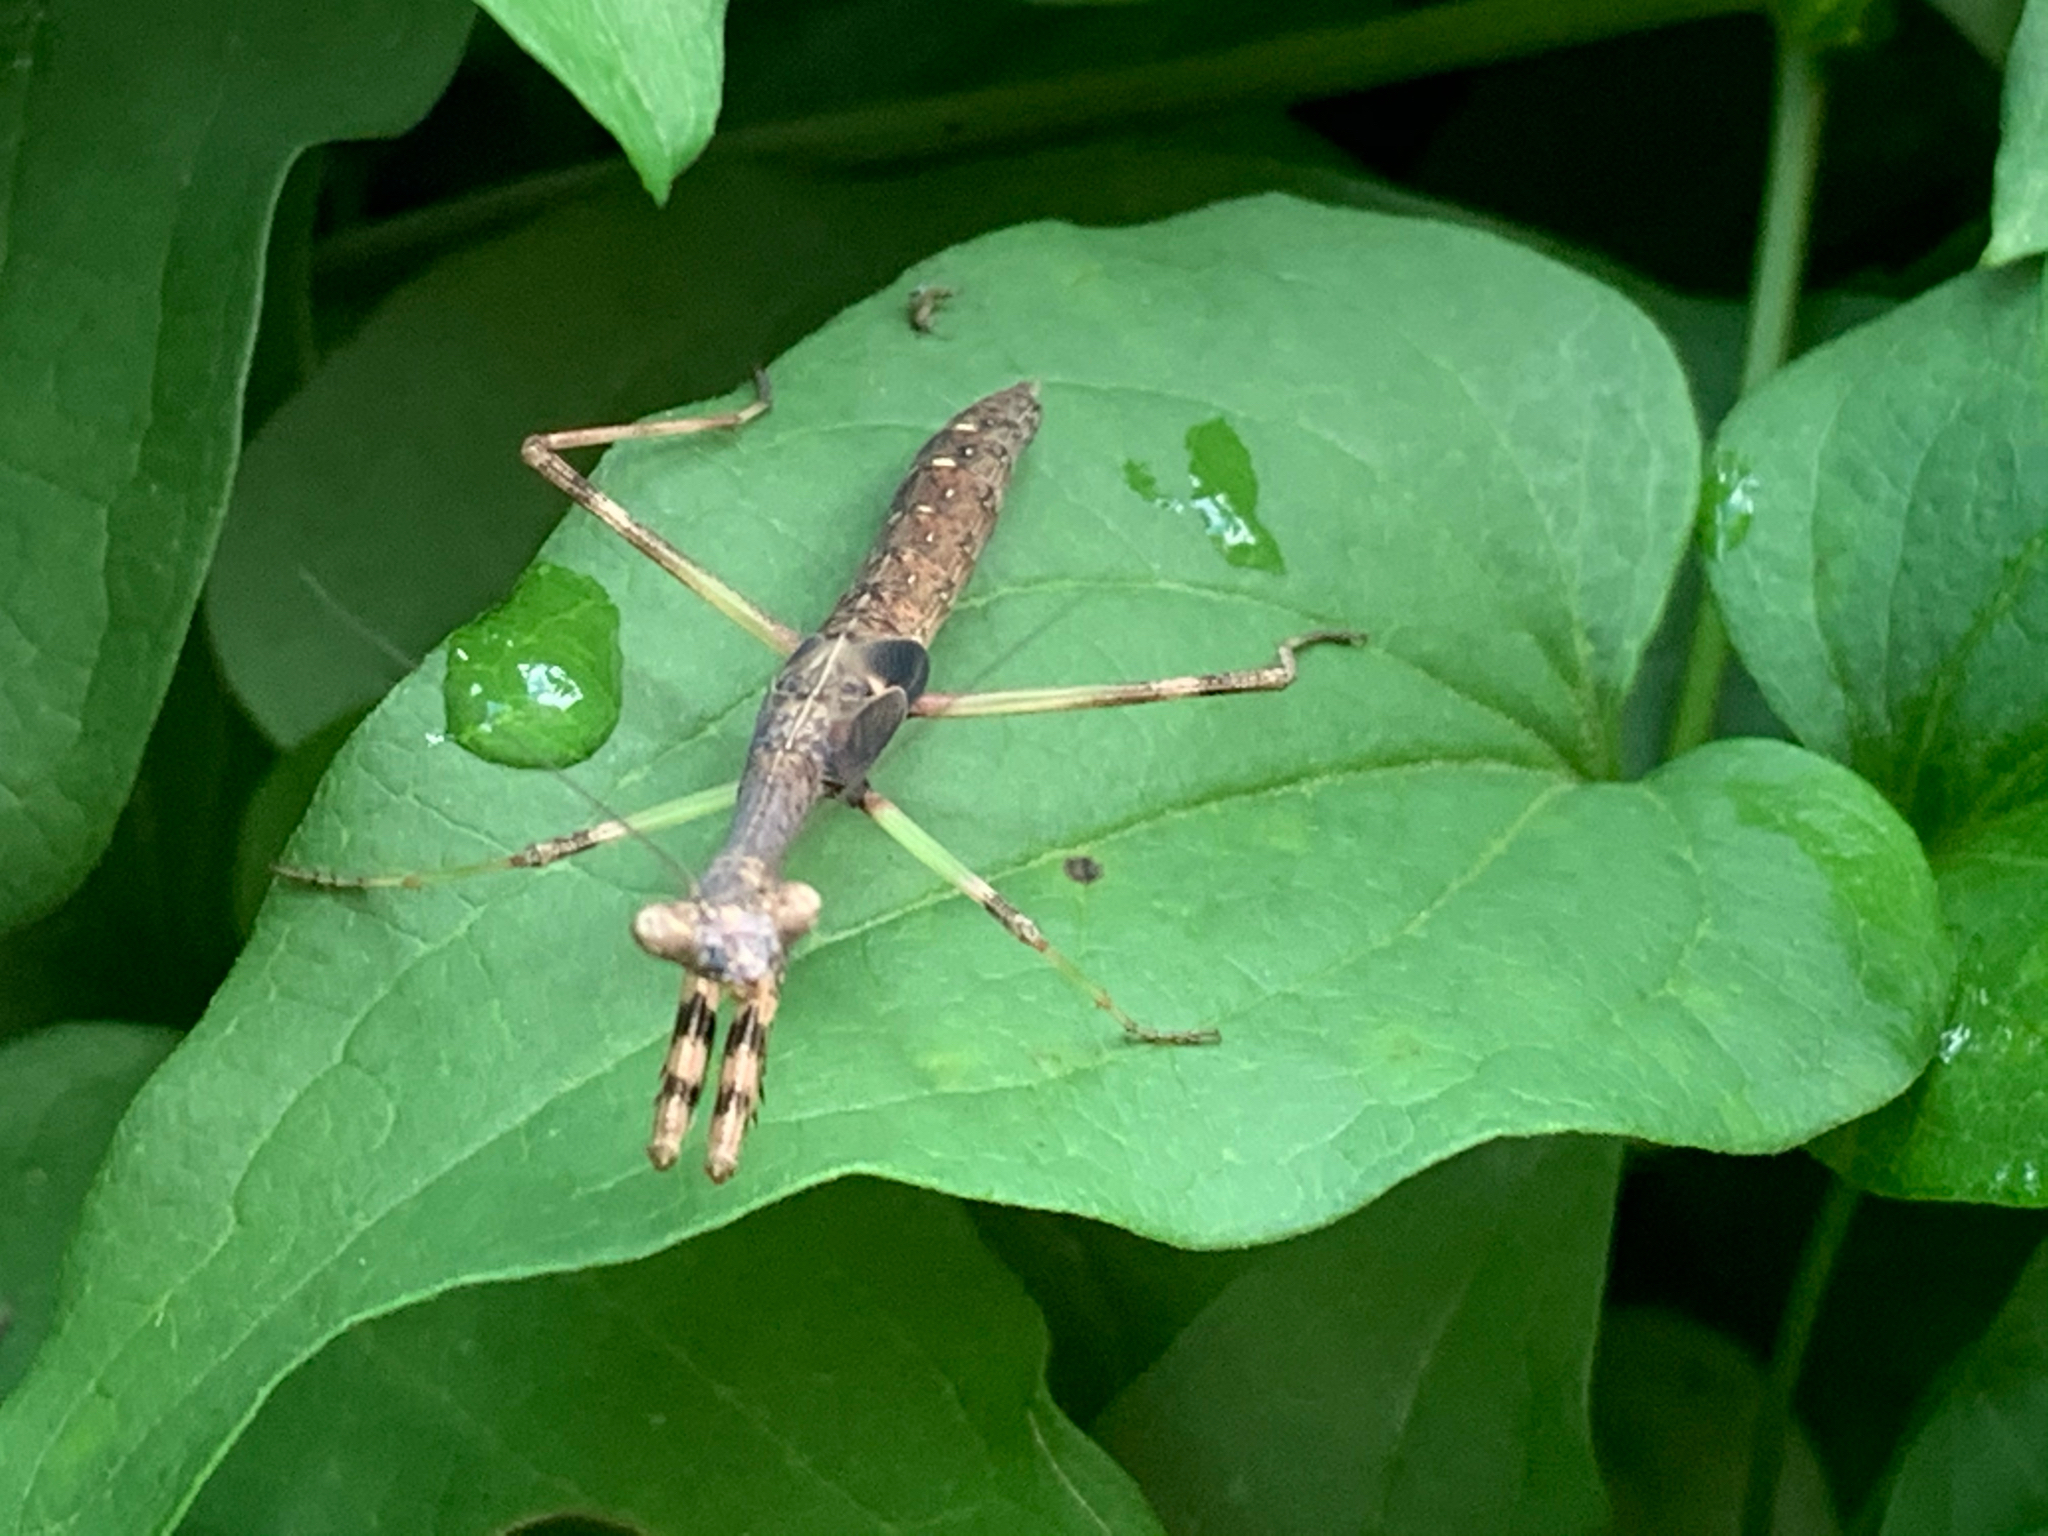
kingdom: Animalia
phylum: Arthropoda
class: Insecta
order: Mantodea
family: Mantidae
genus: Stagmomantis
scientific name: Stagmomantis carolina
